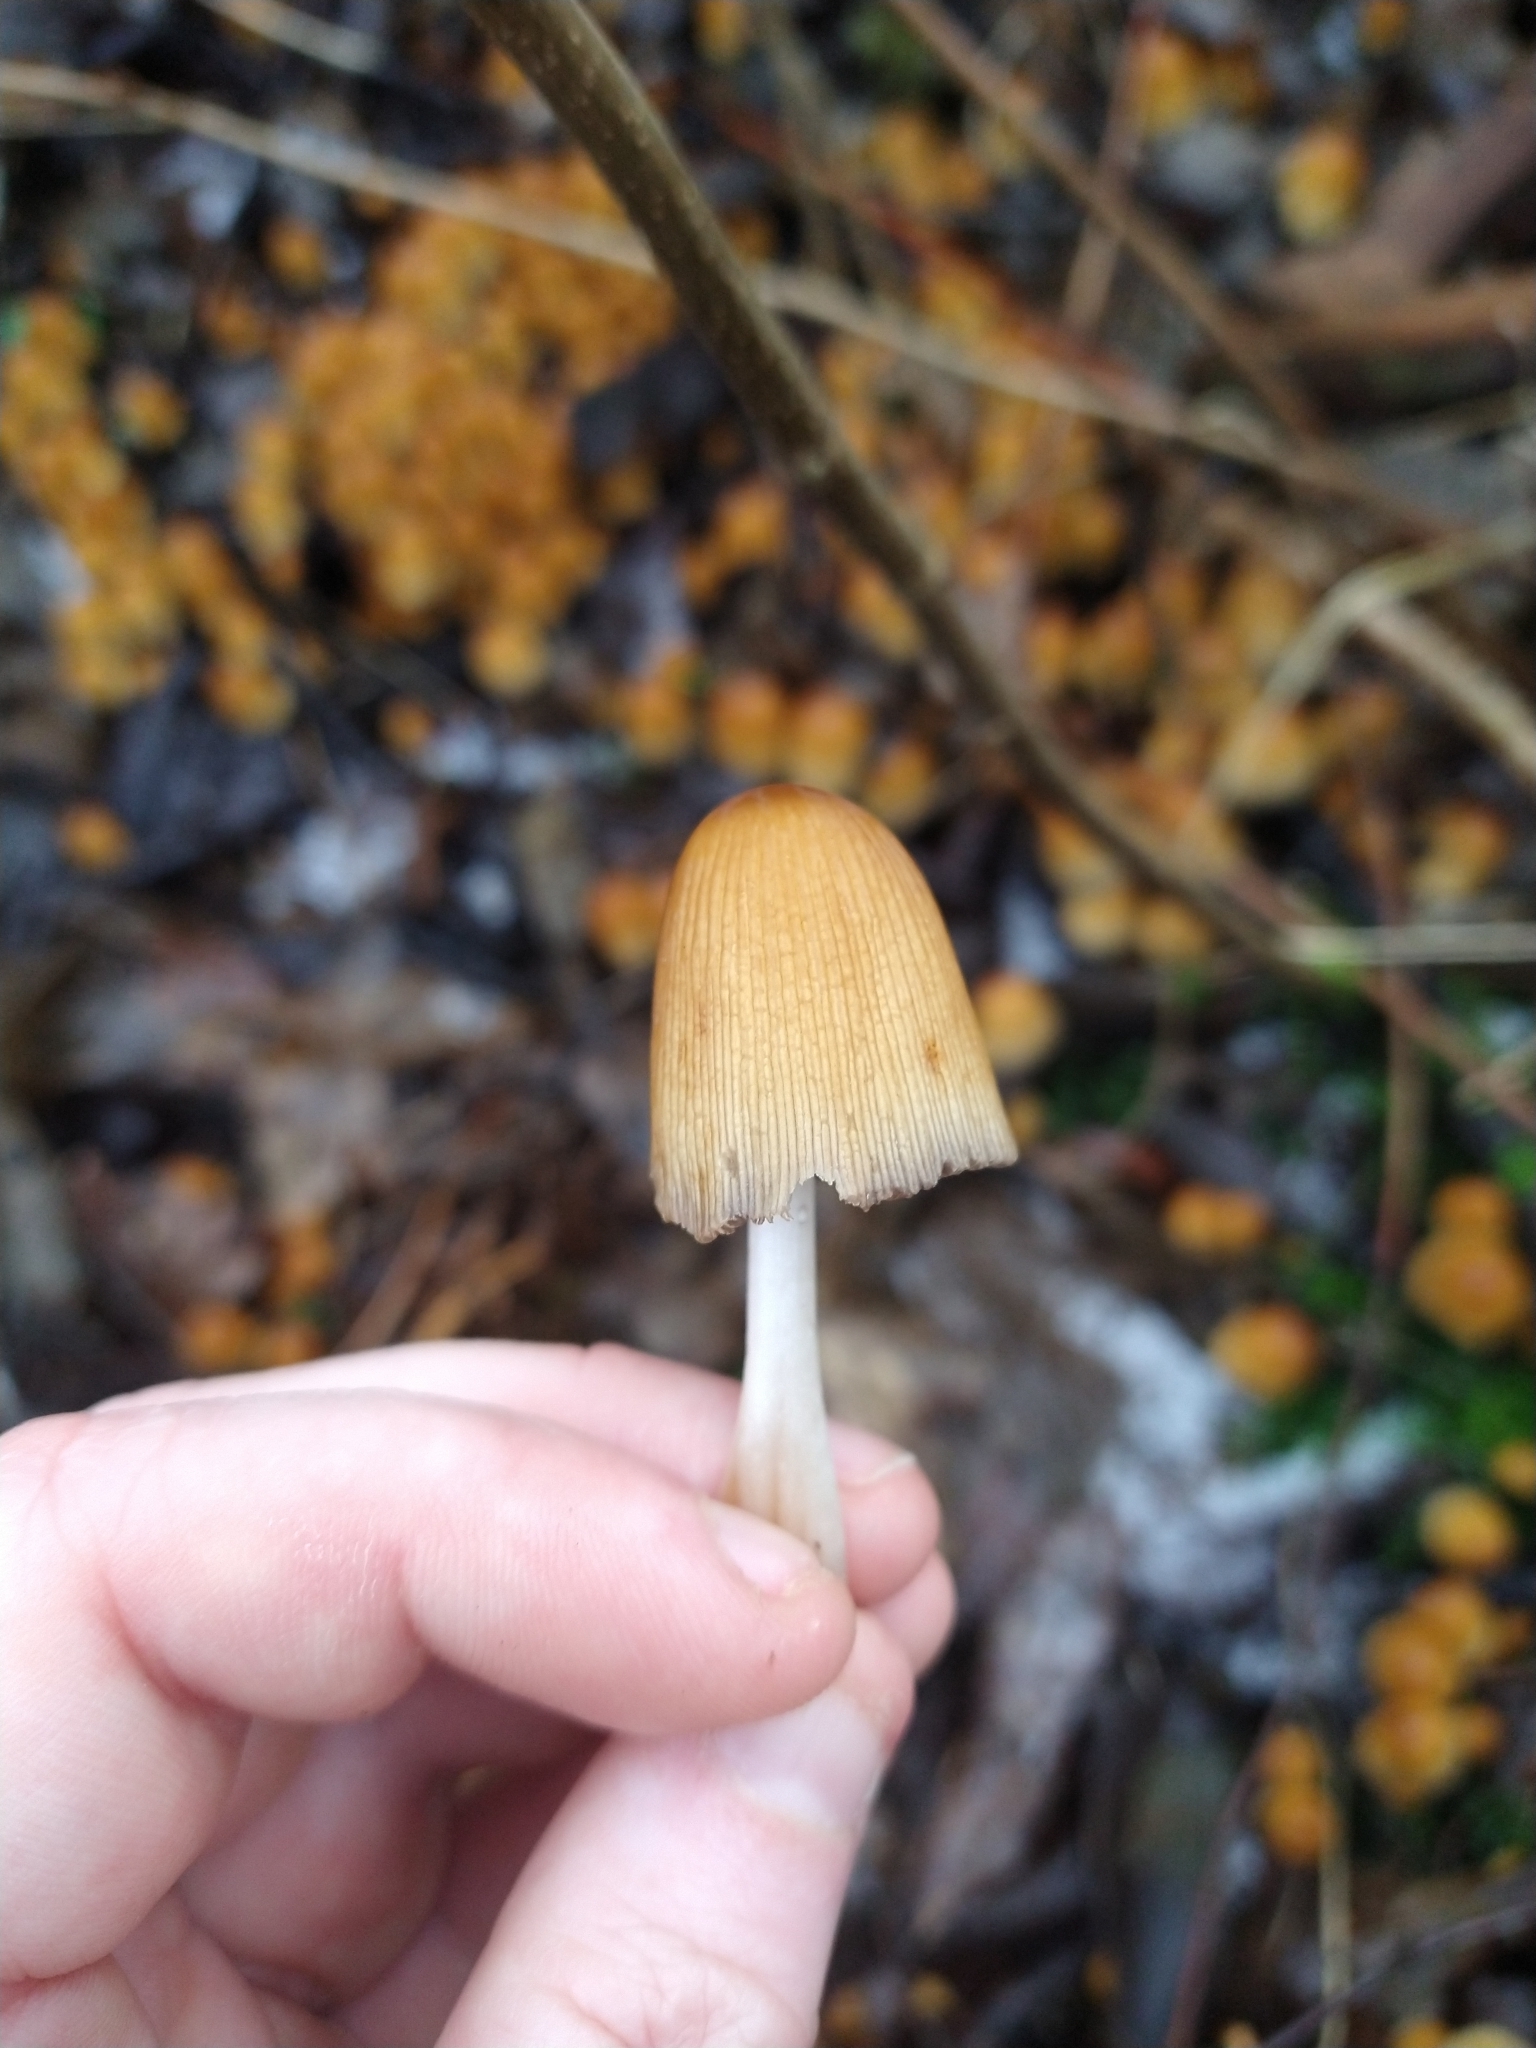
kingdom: Fungi
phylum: Basidiomycota
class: Agaricomycetes
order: Agaricales
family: Psathyrellaceae
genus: Coprinellus
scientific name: Coprinellus micaceus
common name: Glistening ink-cap
